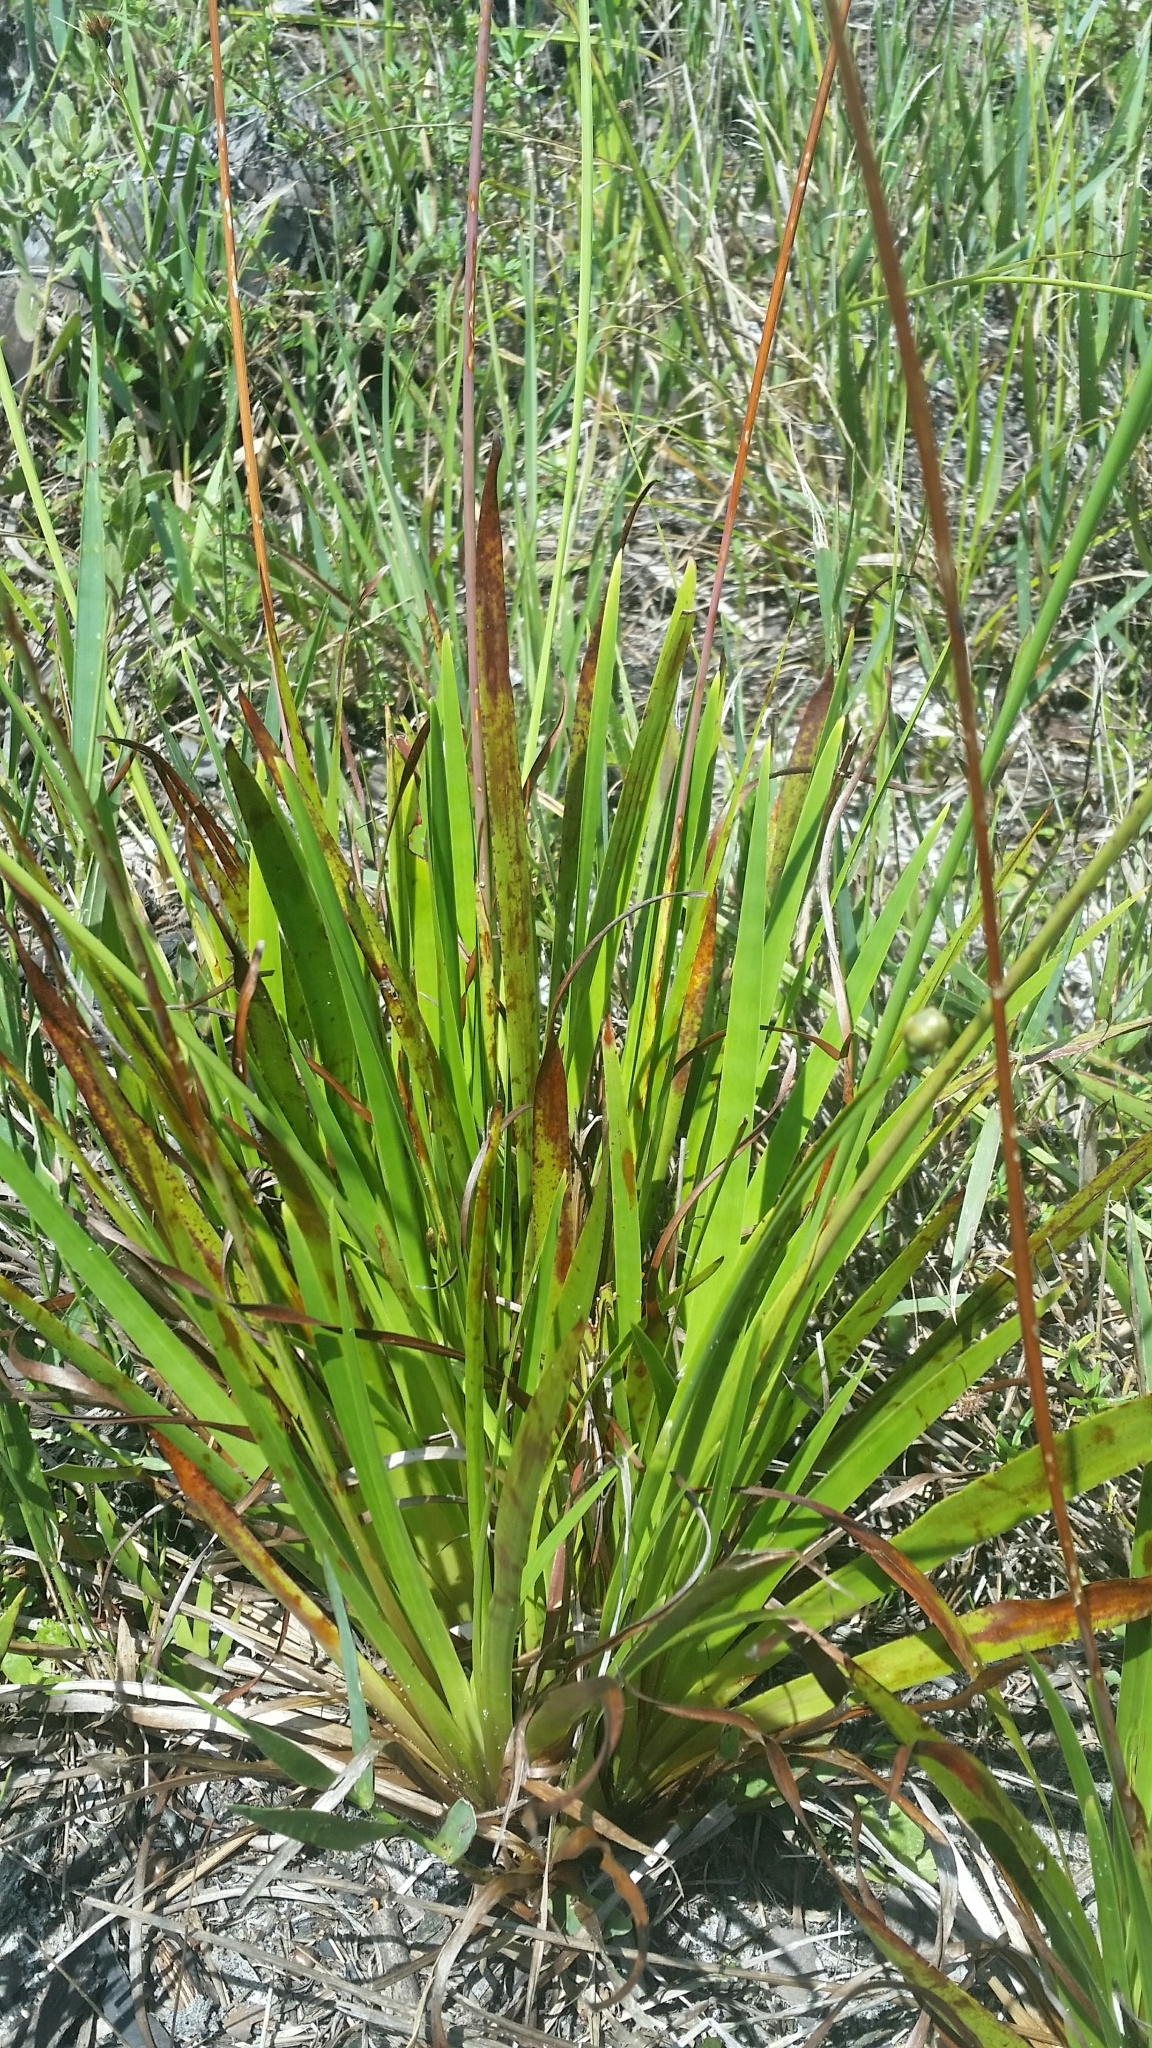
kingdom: Plantae
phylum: Tracheophyta
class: Liliopsida
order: Poales
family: Xyridaceae
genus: Xyris
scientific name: Xyris ambigua
